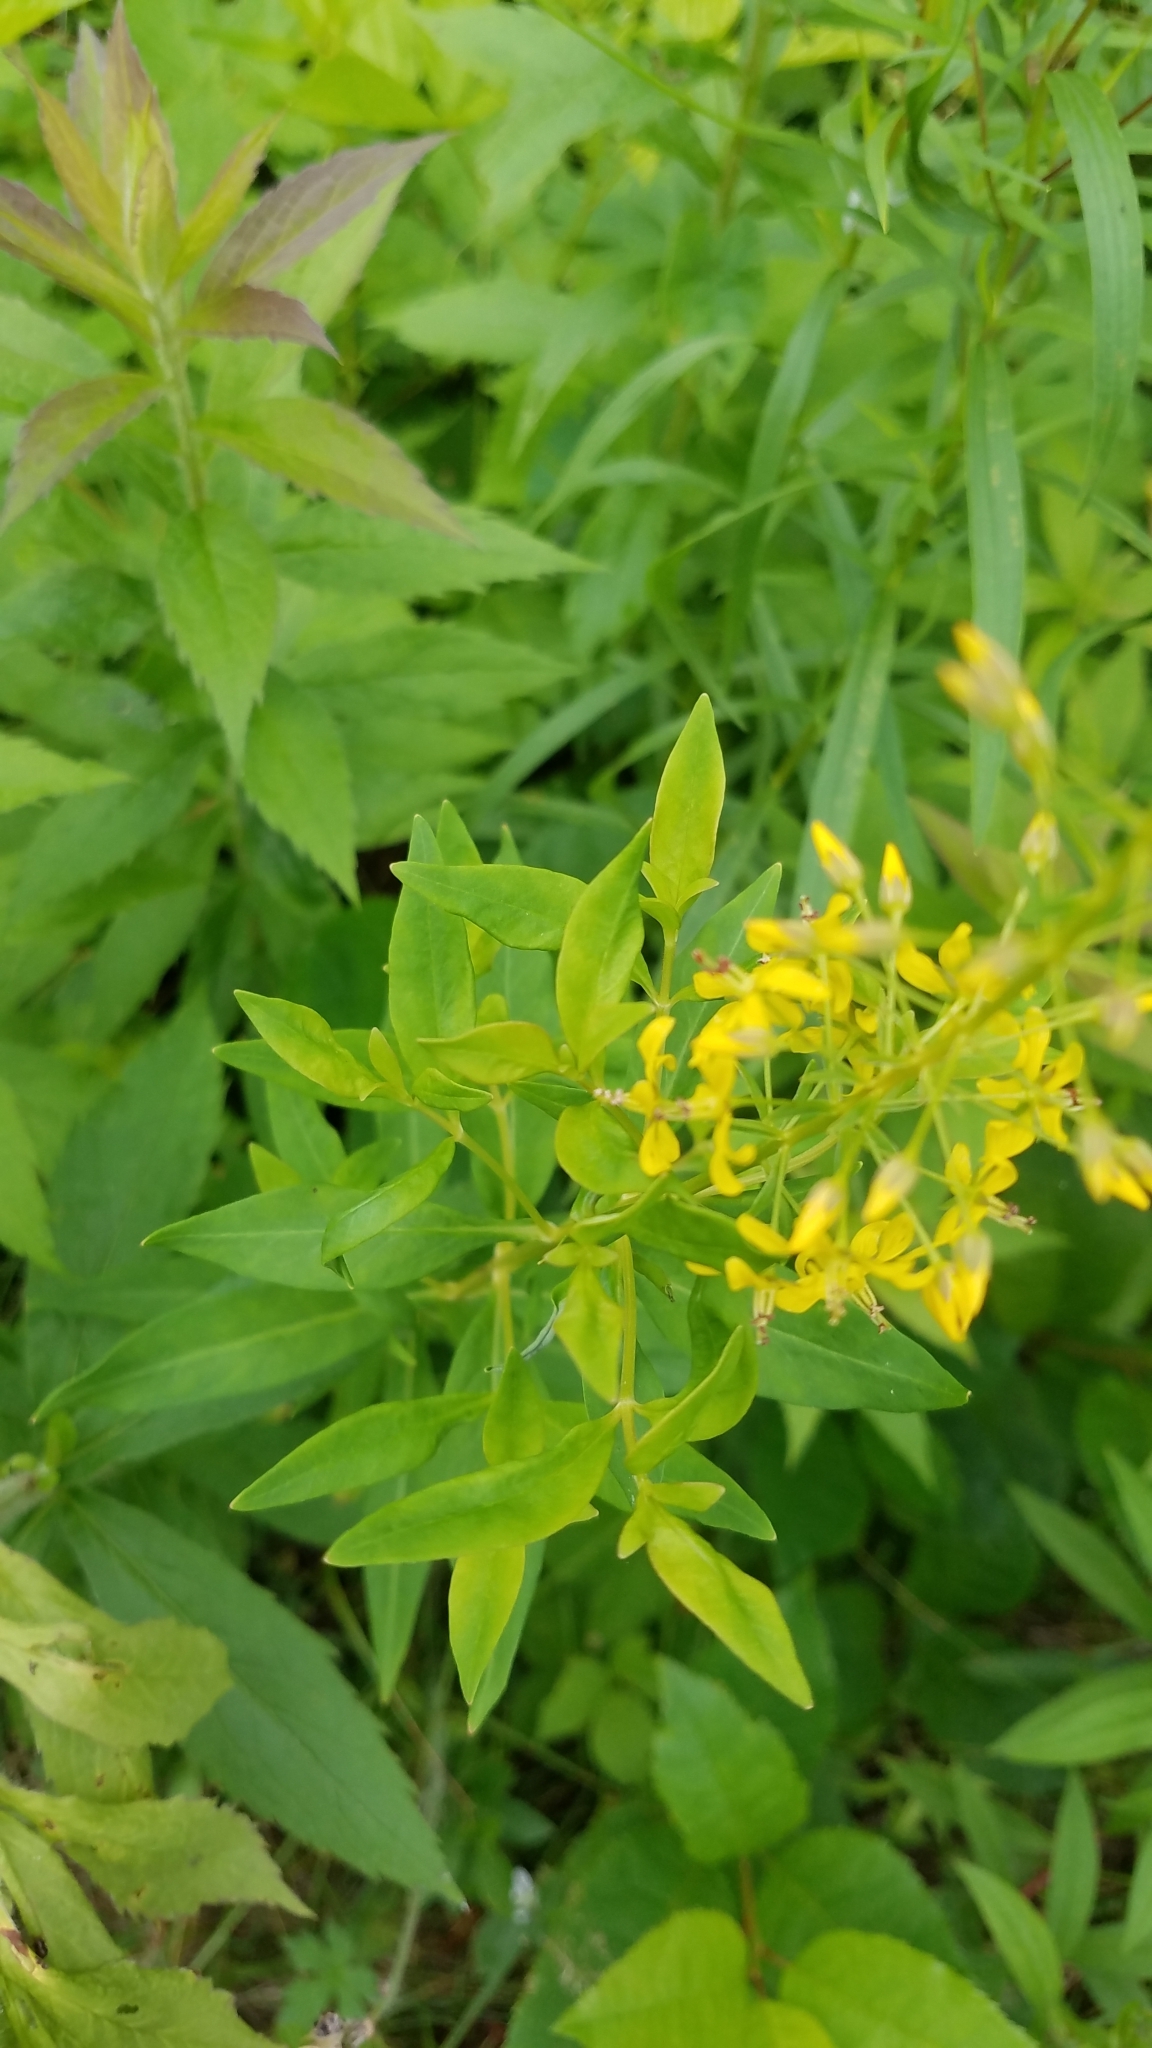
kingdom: Plantae
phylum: Tracheophyta
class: Magnoliopsida
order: Ericales
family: Primulaceae
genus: Lysimachia
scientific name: Lysimachia terrestris
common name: Lake loosestrife
